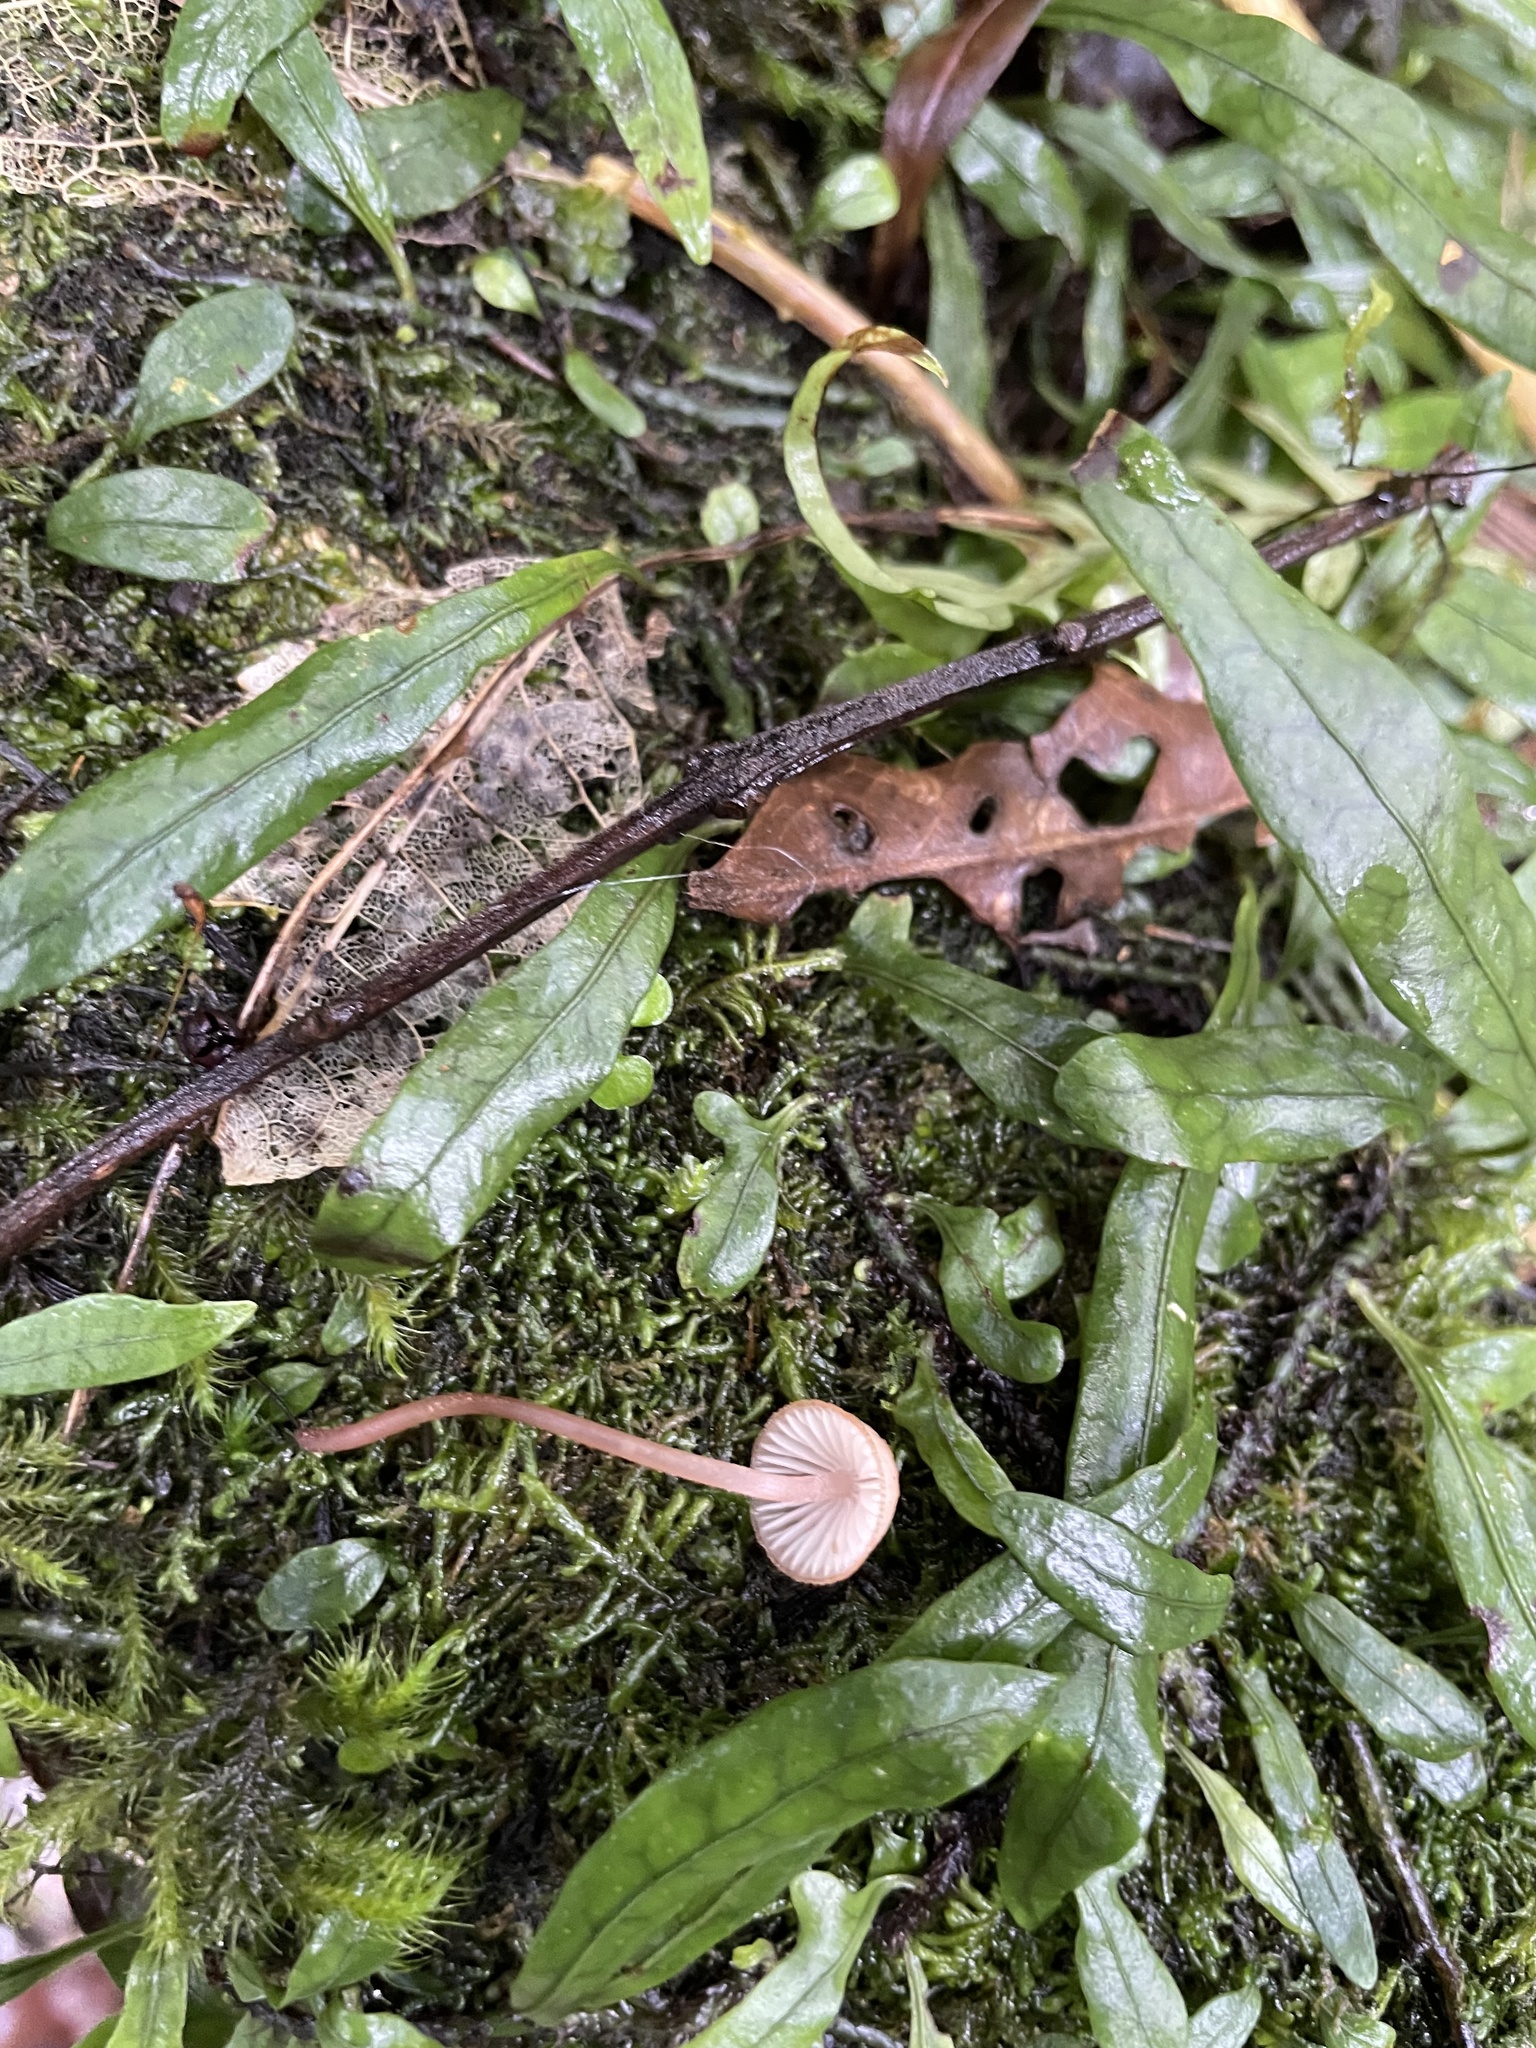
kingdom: Fungi
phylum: Basidiomycota
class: Agaricomycetes
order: Agaricales
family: Mycenaceae
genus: Mycena
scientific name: Mycena mariae
